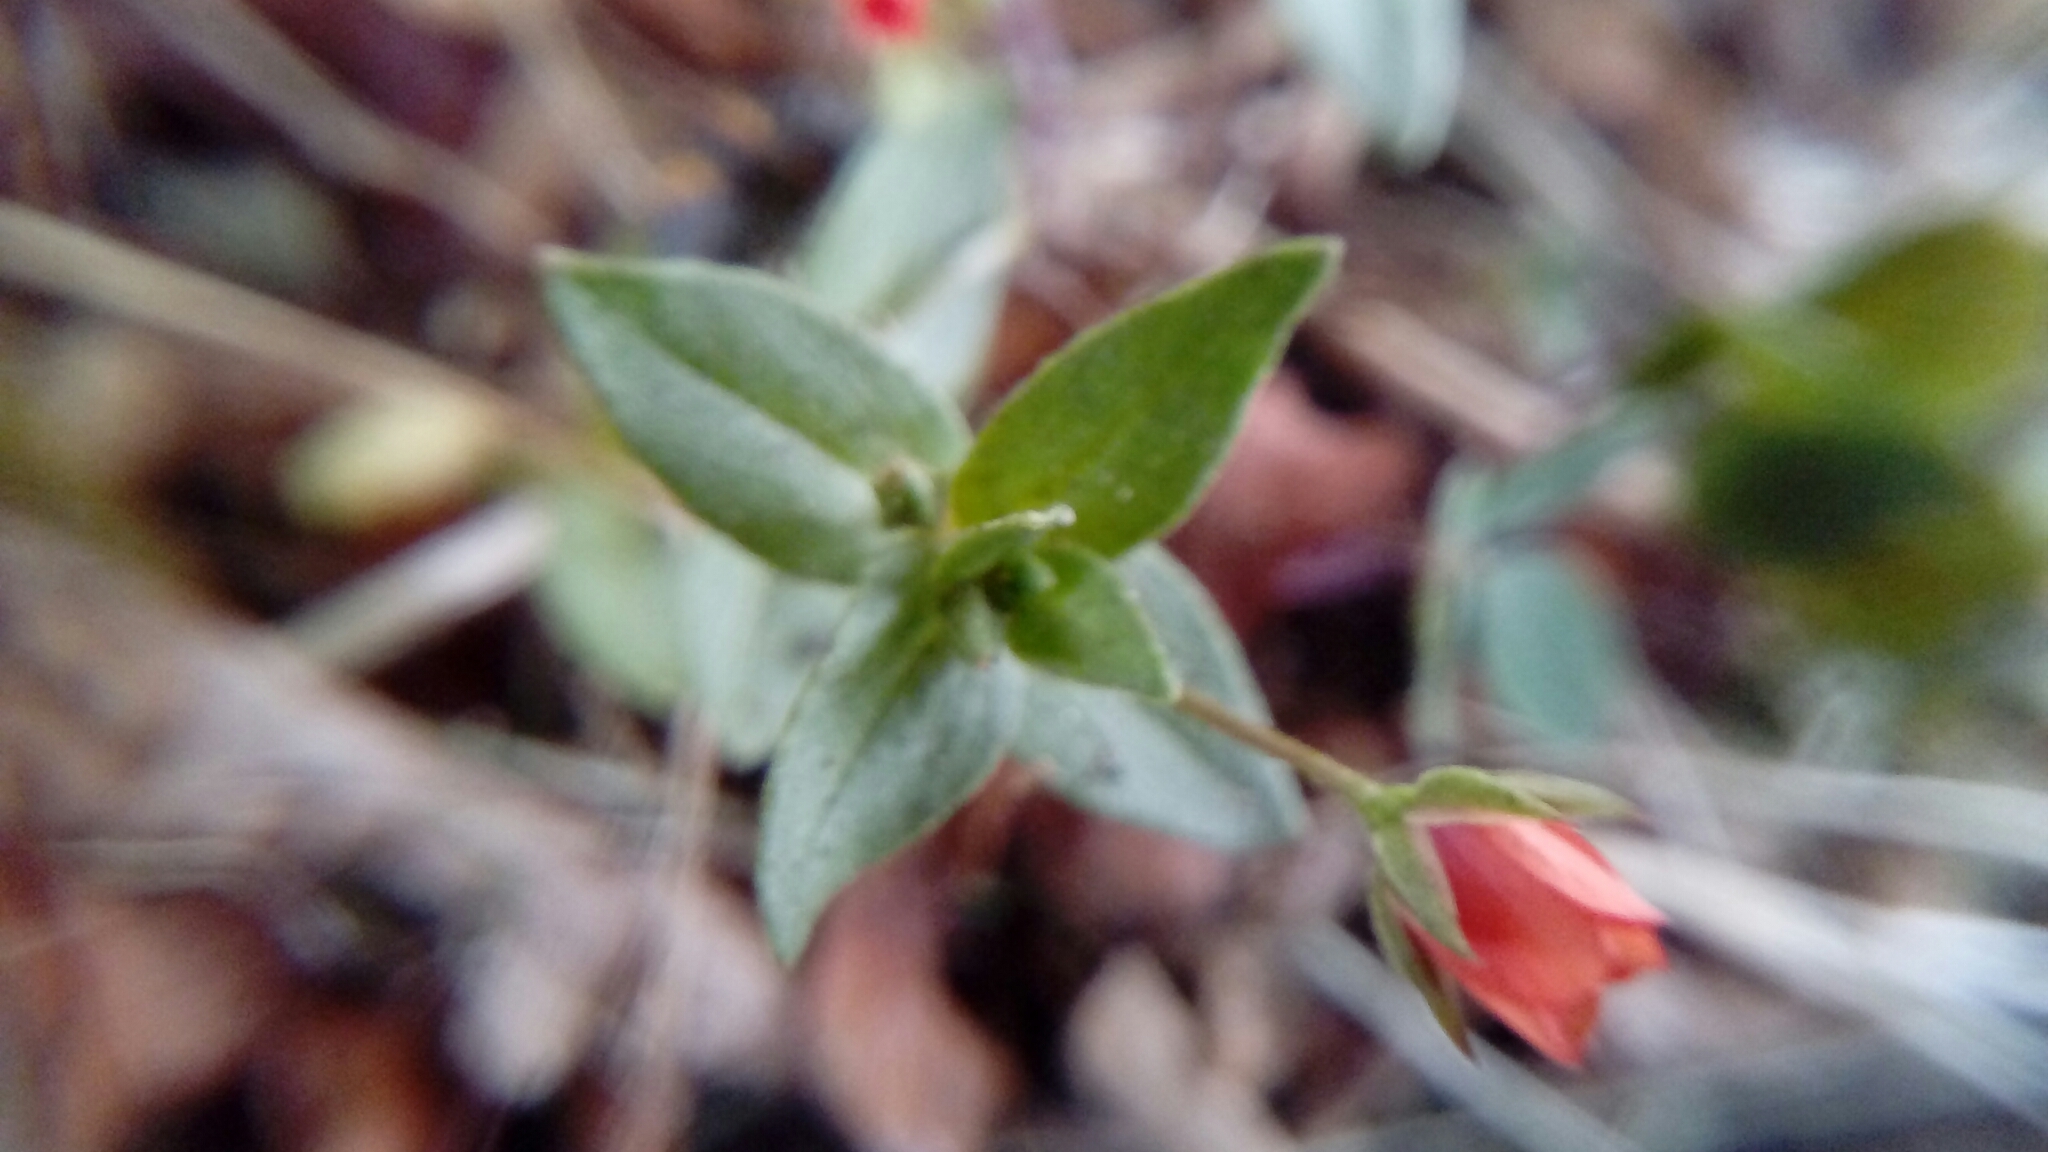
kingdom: Plantae
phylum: Tracheophyta
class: Magnoliopsida
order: Ericales
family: Primulaceae
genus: Lysimachia
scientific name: Lysimachia arvensis
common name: Scarlet pimpernel
